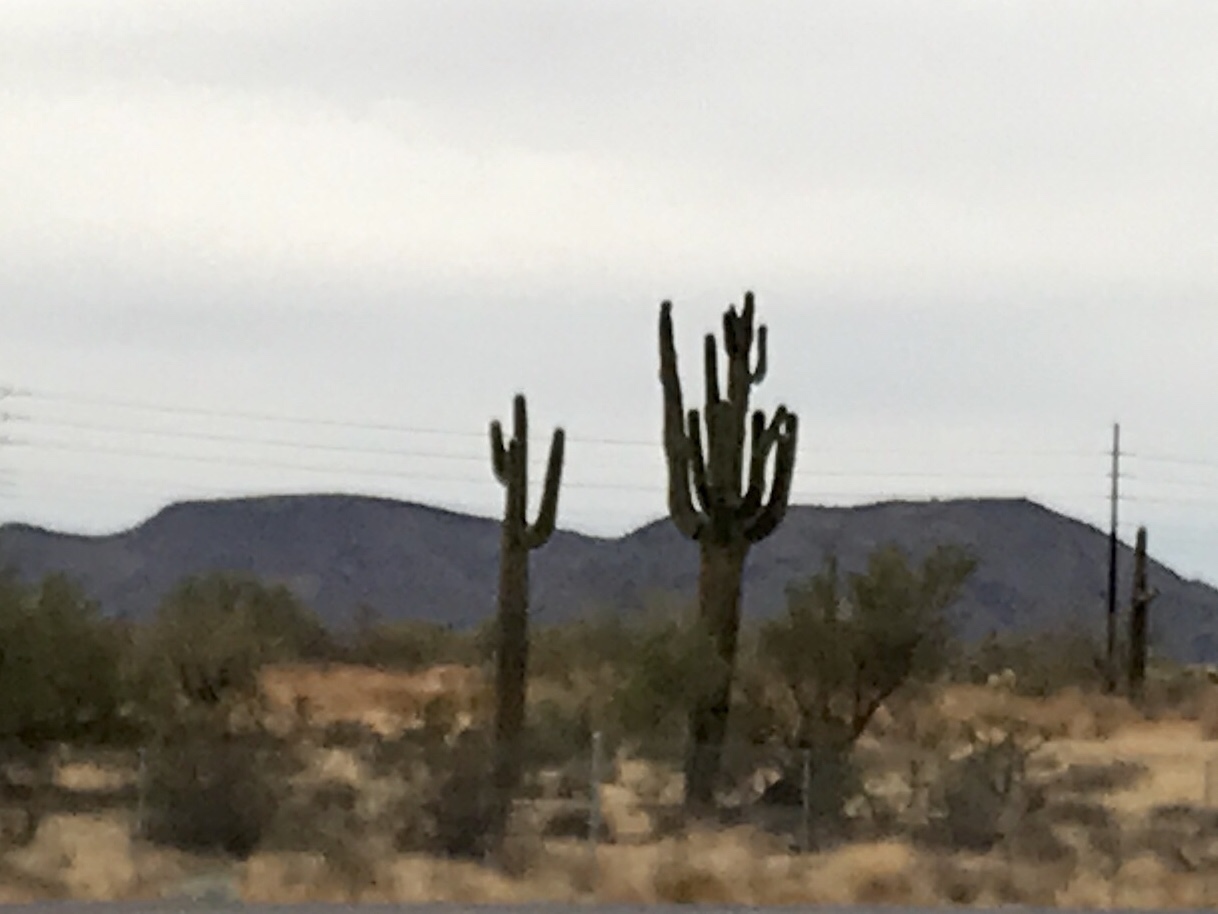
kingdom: Plantae
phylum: Tracheophyta
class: Magnoliopsida
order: Caryophyllales
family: Cactaceae
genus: Carnegiea
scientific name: Carnegiea gigantea
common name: Saguaro
